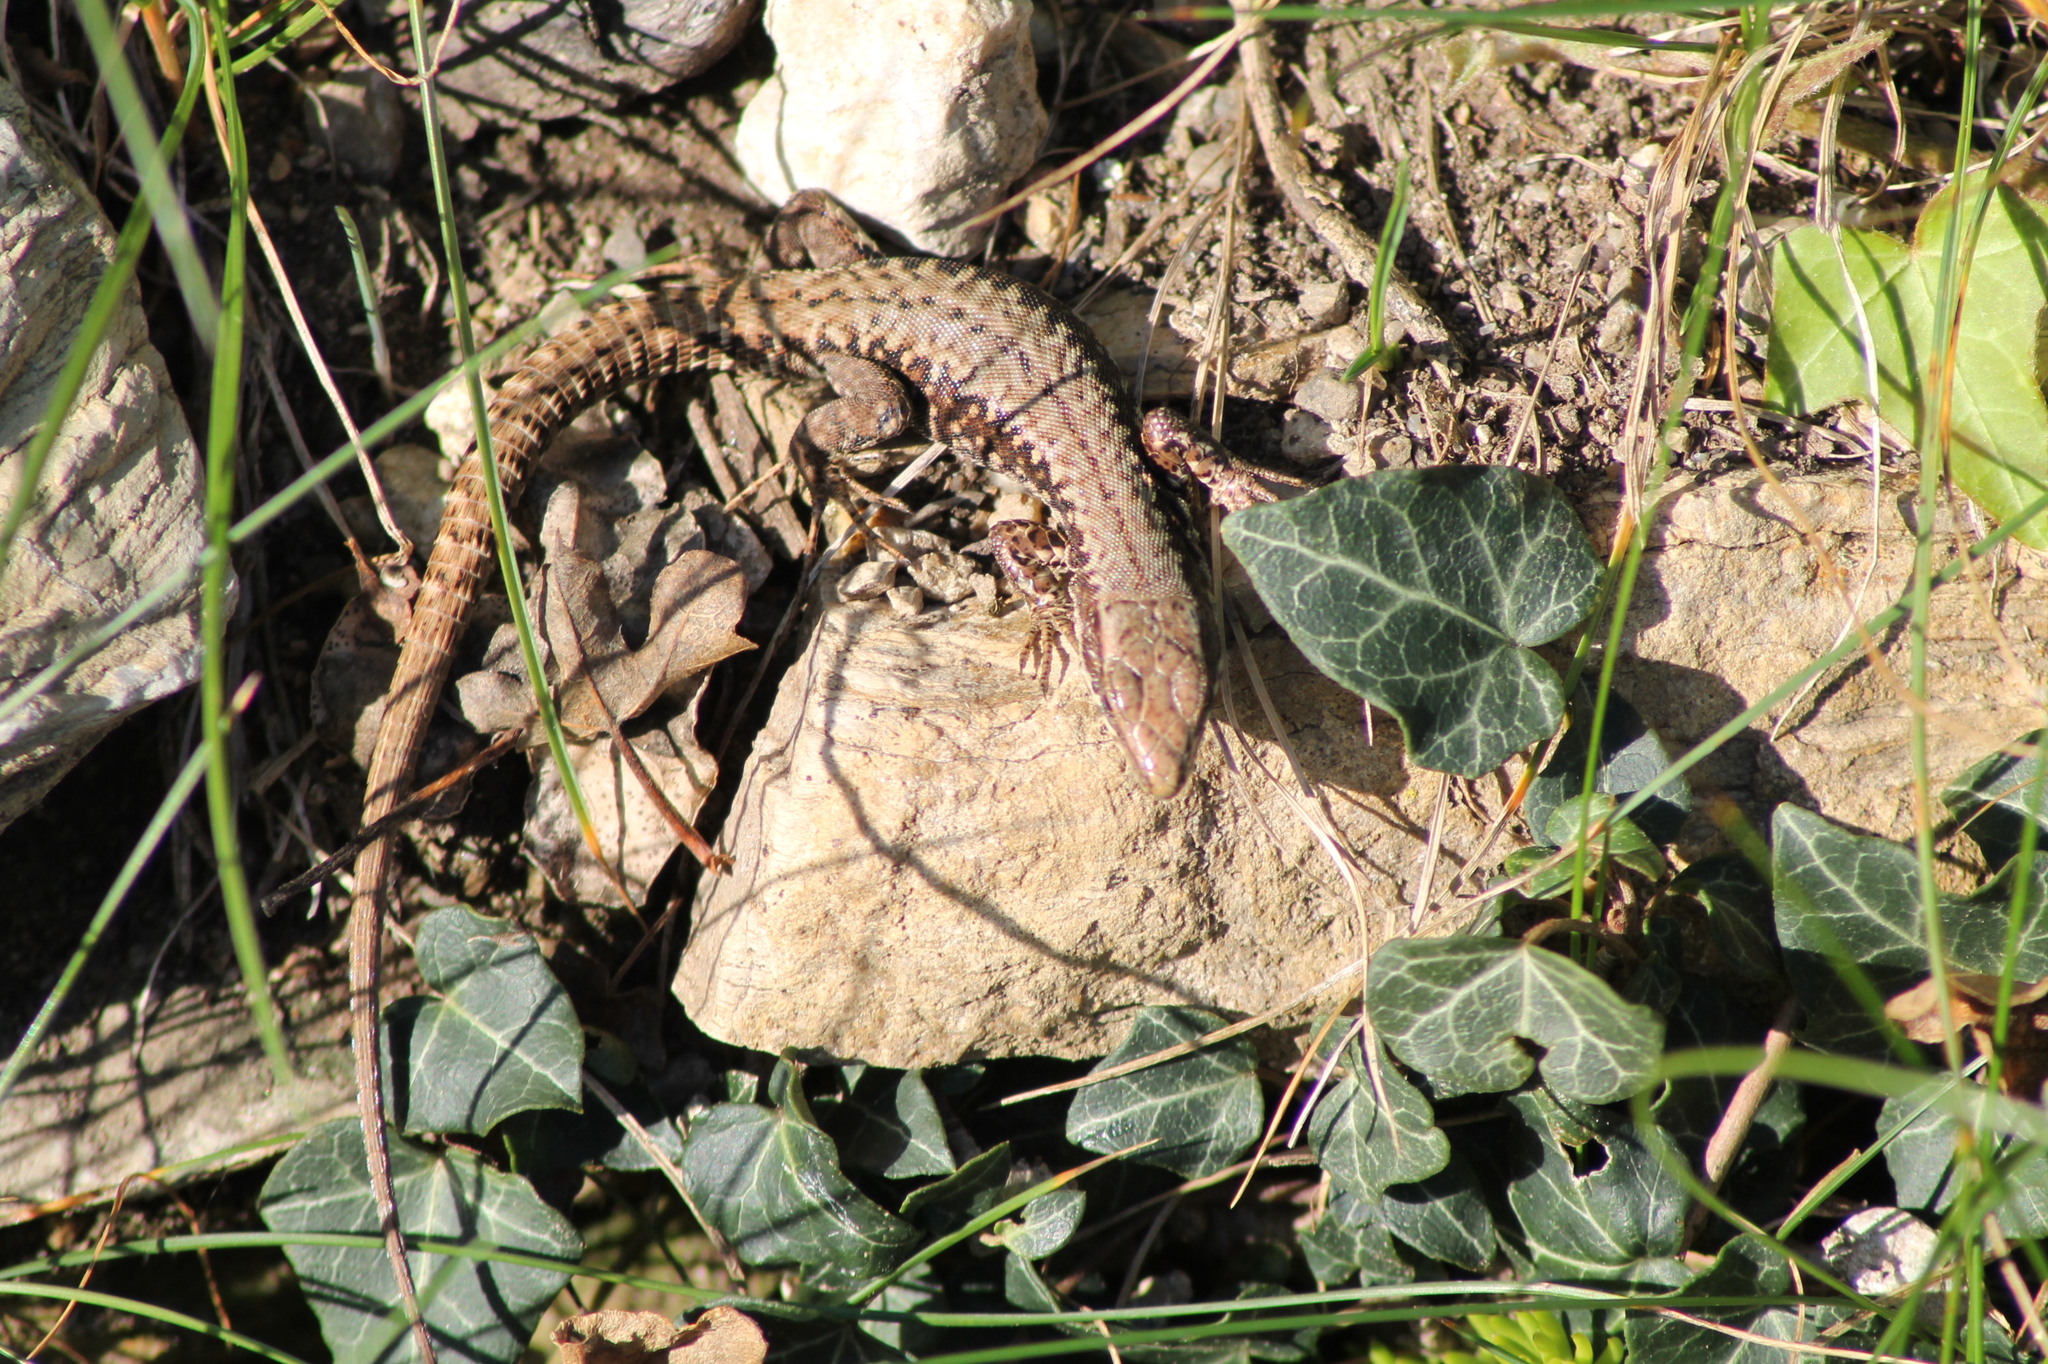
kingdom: Animalia
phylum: Chordata
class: Squamata
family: Lacertidae
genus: Podarcis
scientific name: Podarcis muralis
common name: Common wall lizard
